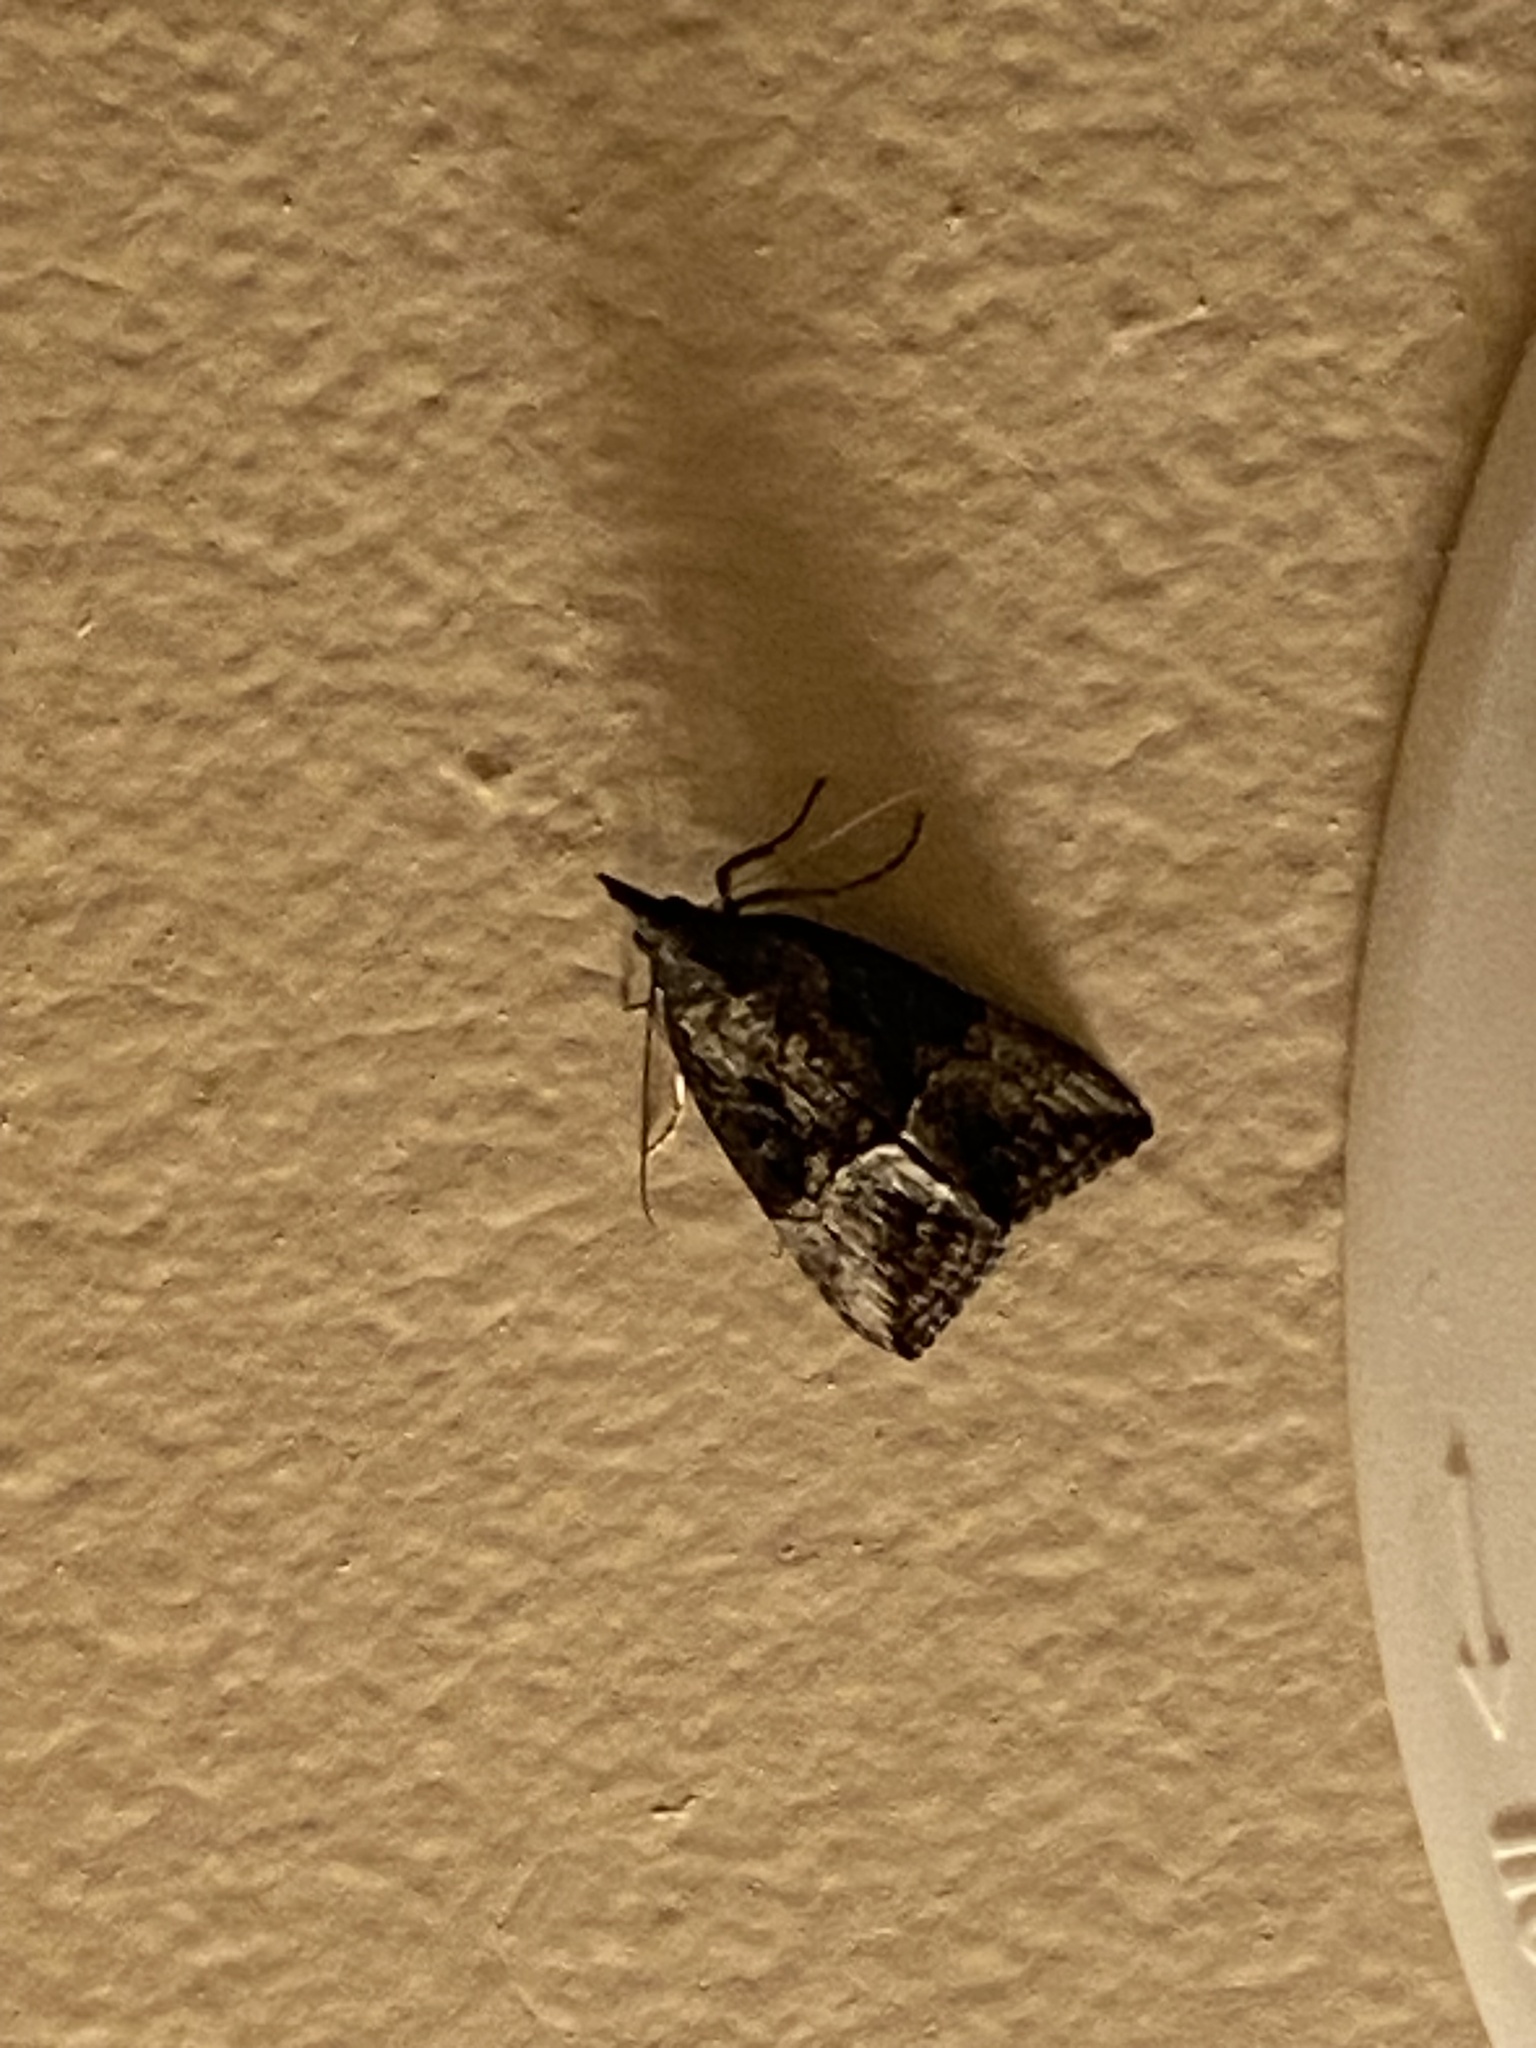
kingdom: Animalia
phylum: Arthropoda
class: Insecta
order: Lepidoptera
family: Erebidae
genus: Hypena
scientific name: Hypena scabra
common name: Green cloverworm
